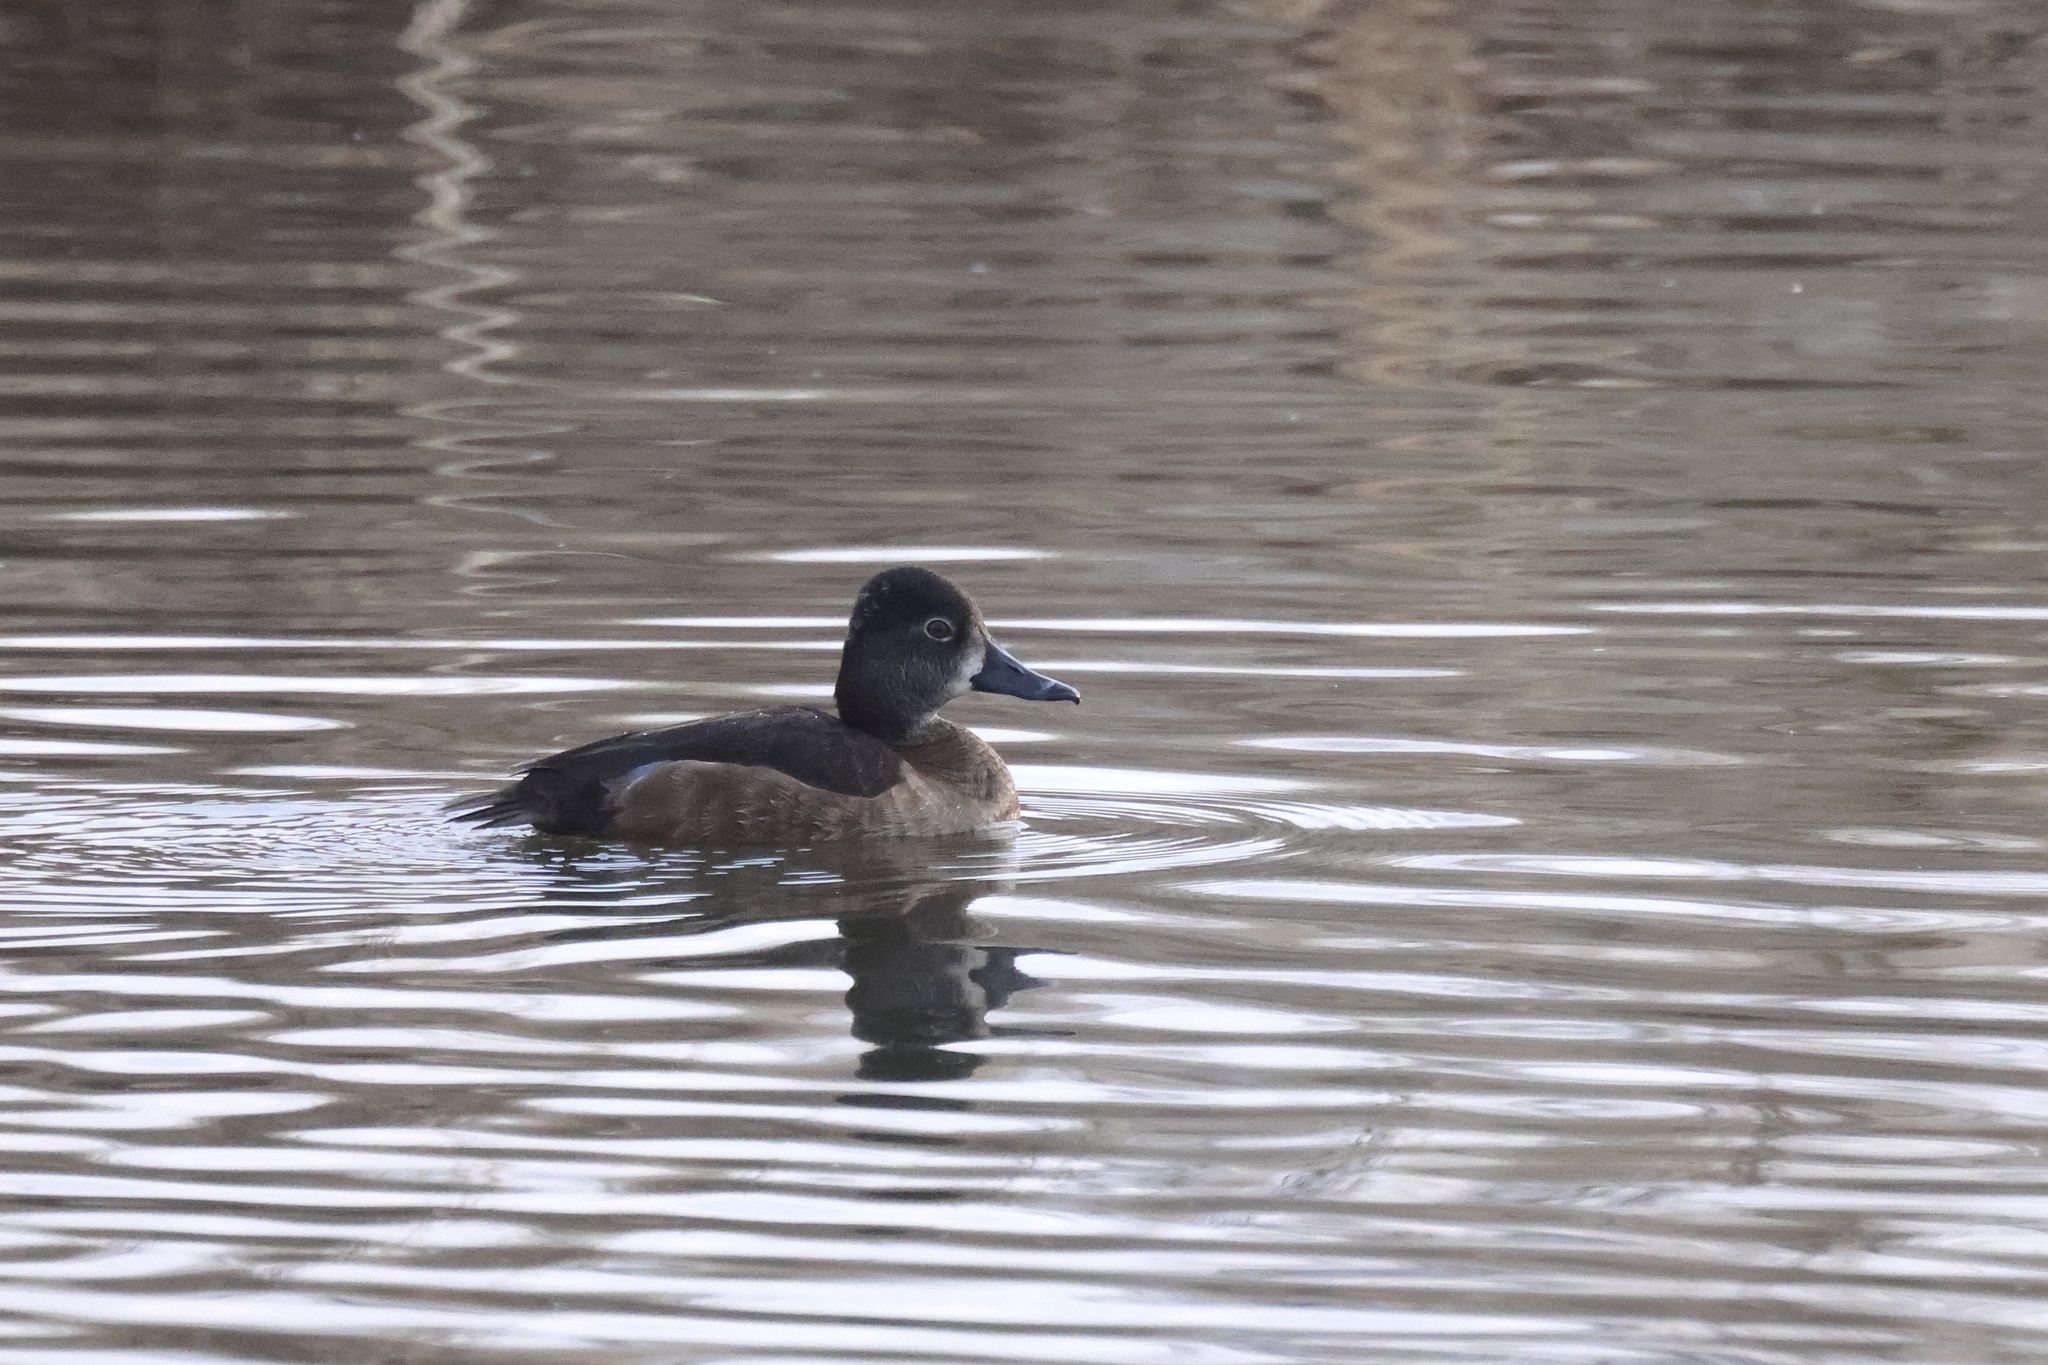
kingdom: Animalia
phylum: Chordata
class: Aves
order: Anseriformes
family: Anatidae
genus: Aythya
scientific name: Aythya collaris
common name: Ring-necked duck
